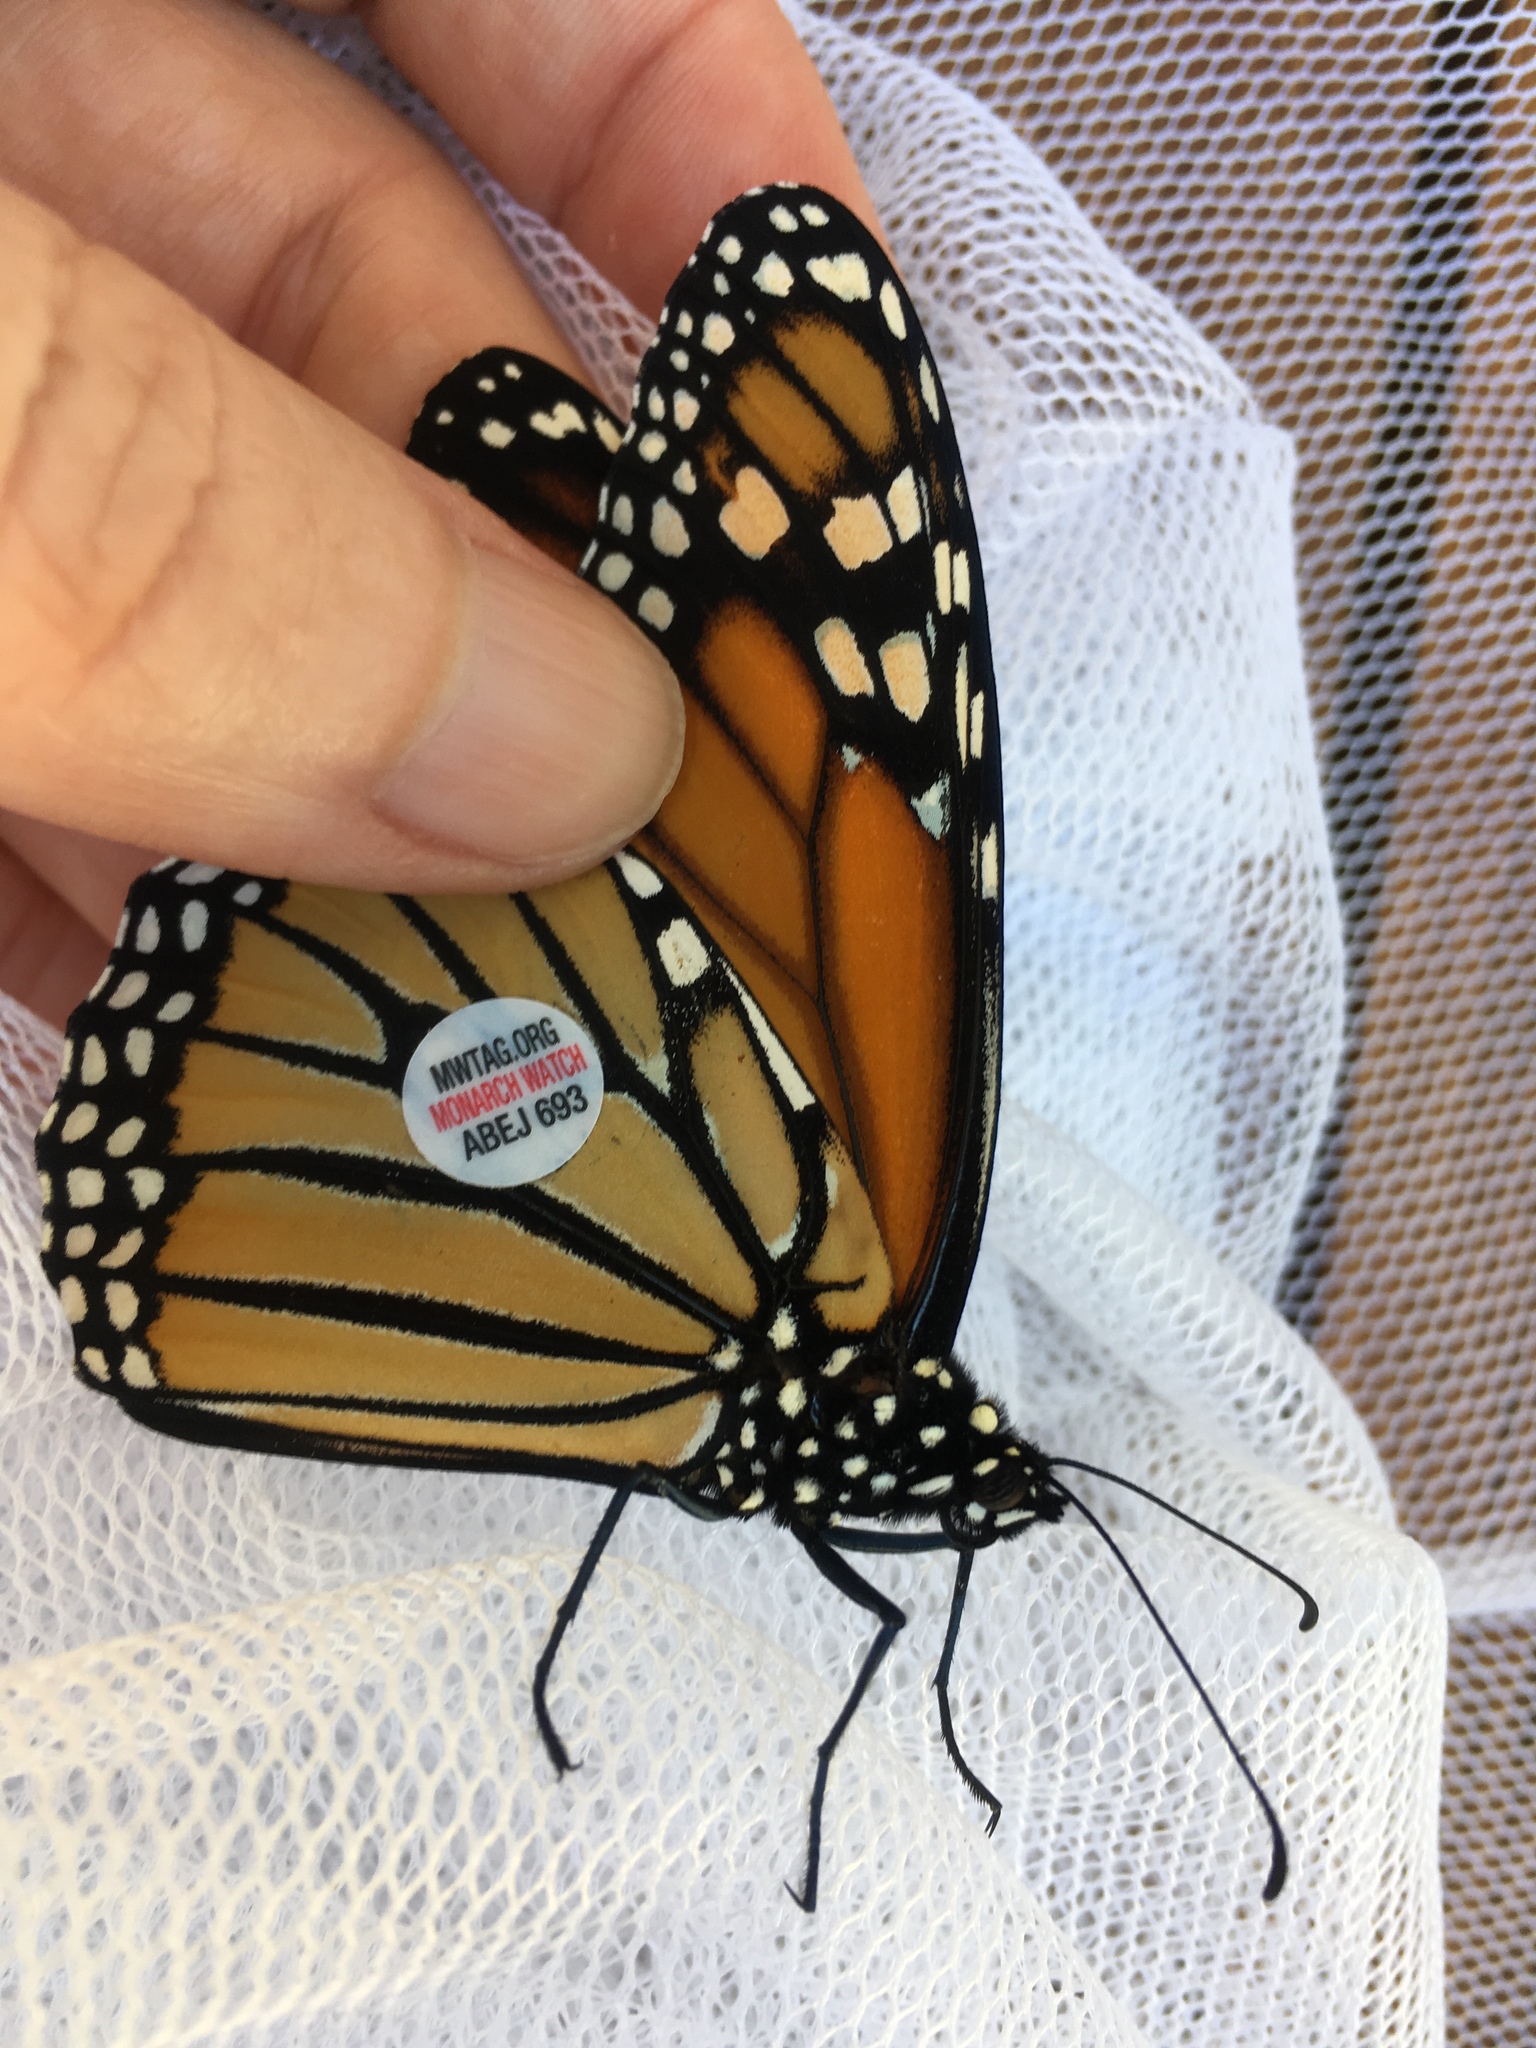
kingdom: Animalia
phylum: Arthropoda
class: Insecta
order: Lepidoptera
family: Nymphalidae
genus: Danaus
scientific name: Danaus plexippus
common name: Monarch
